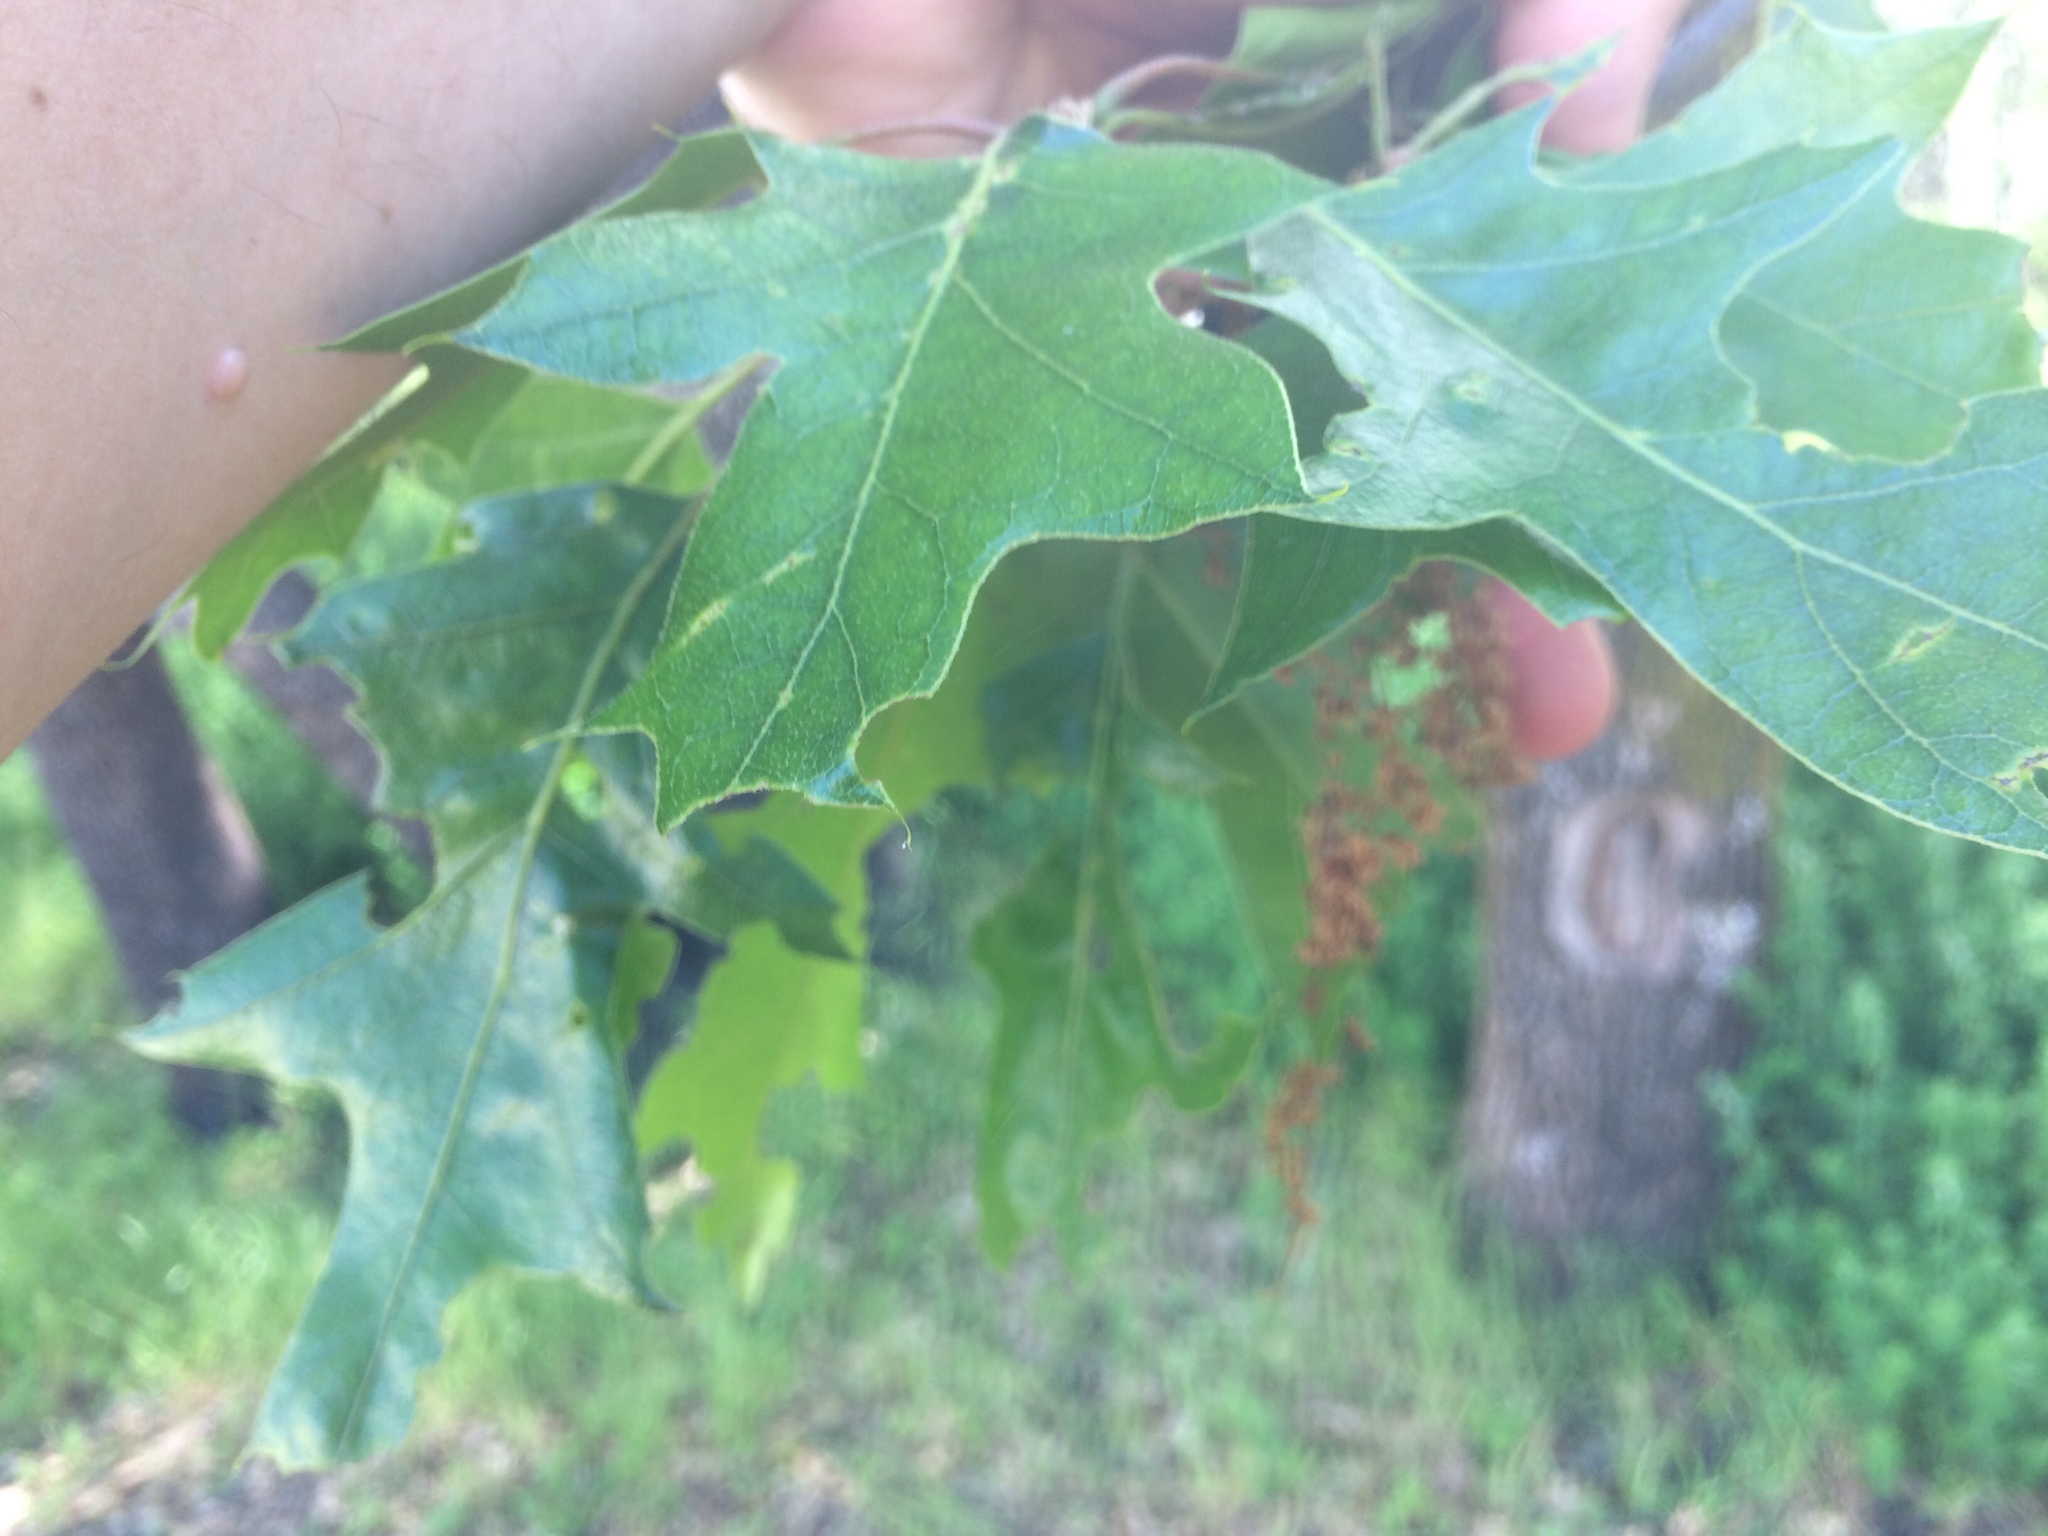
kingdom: Plantae
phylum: Tracheophyta
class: Magnoliopsida
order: Fagales
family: Fagaceae
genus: Quercus
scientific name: Quercus kelloggii
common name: California black oak
